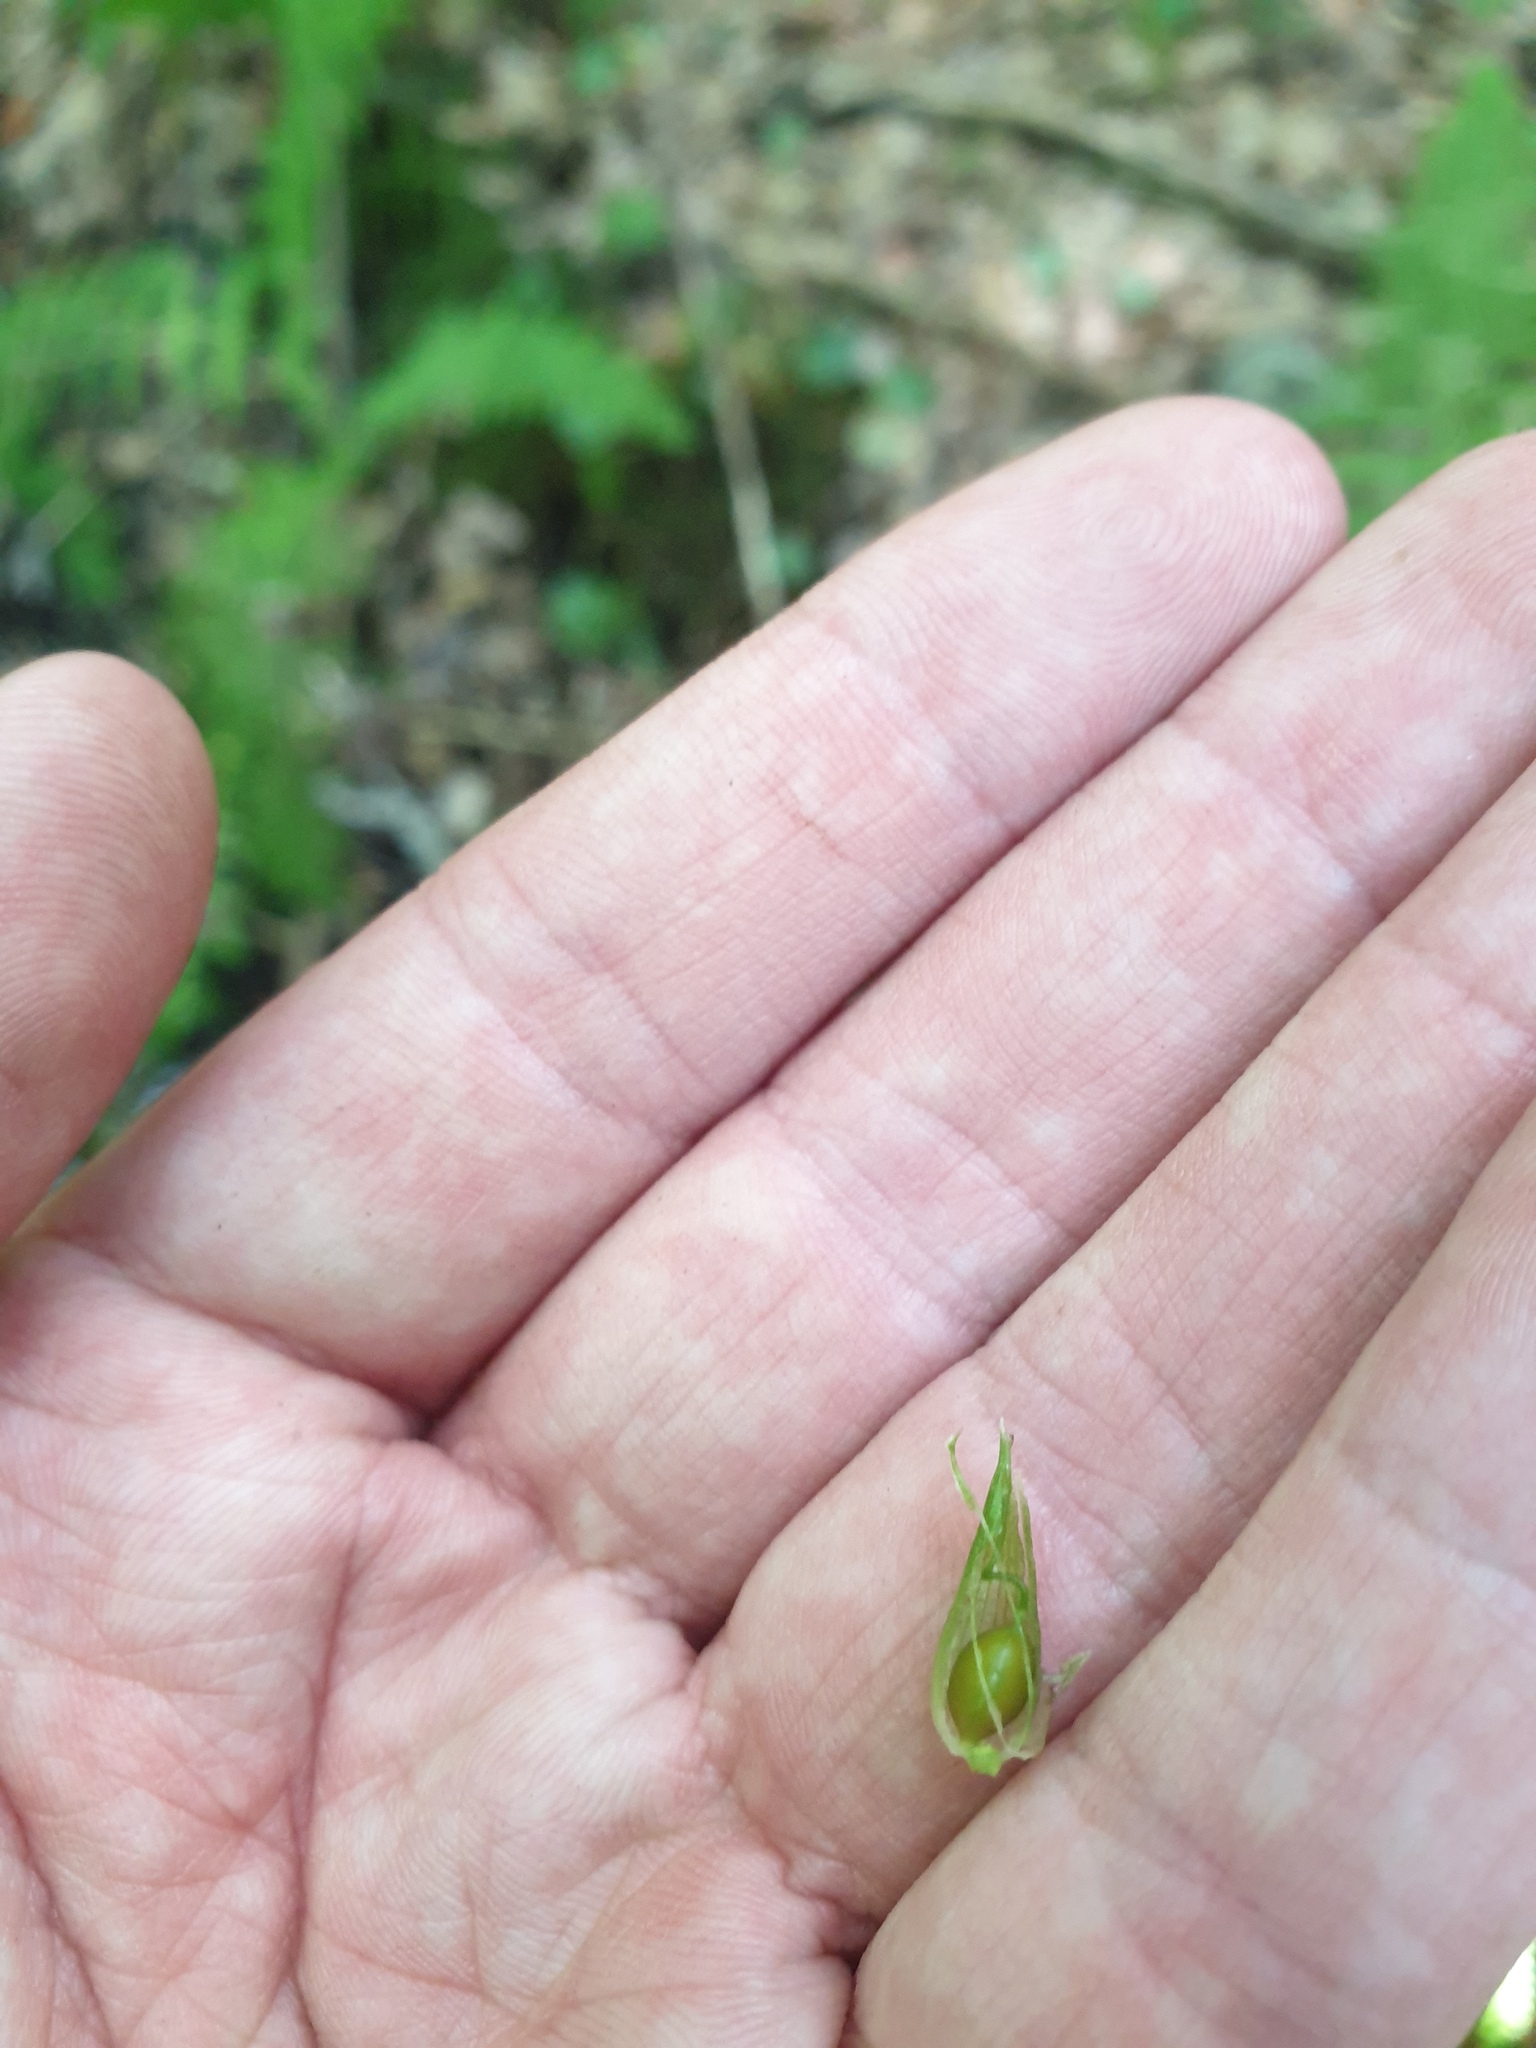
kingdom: Plantae
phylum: Tracheophyta
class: Liliopsida
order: Poales
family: Cyperaceae
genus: Carex
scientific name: Carex intumescens
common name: Greater bladder sedge
